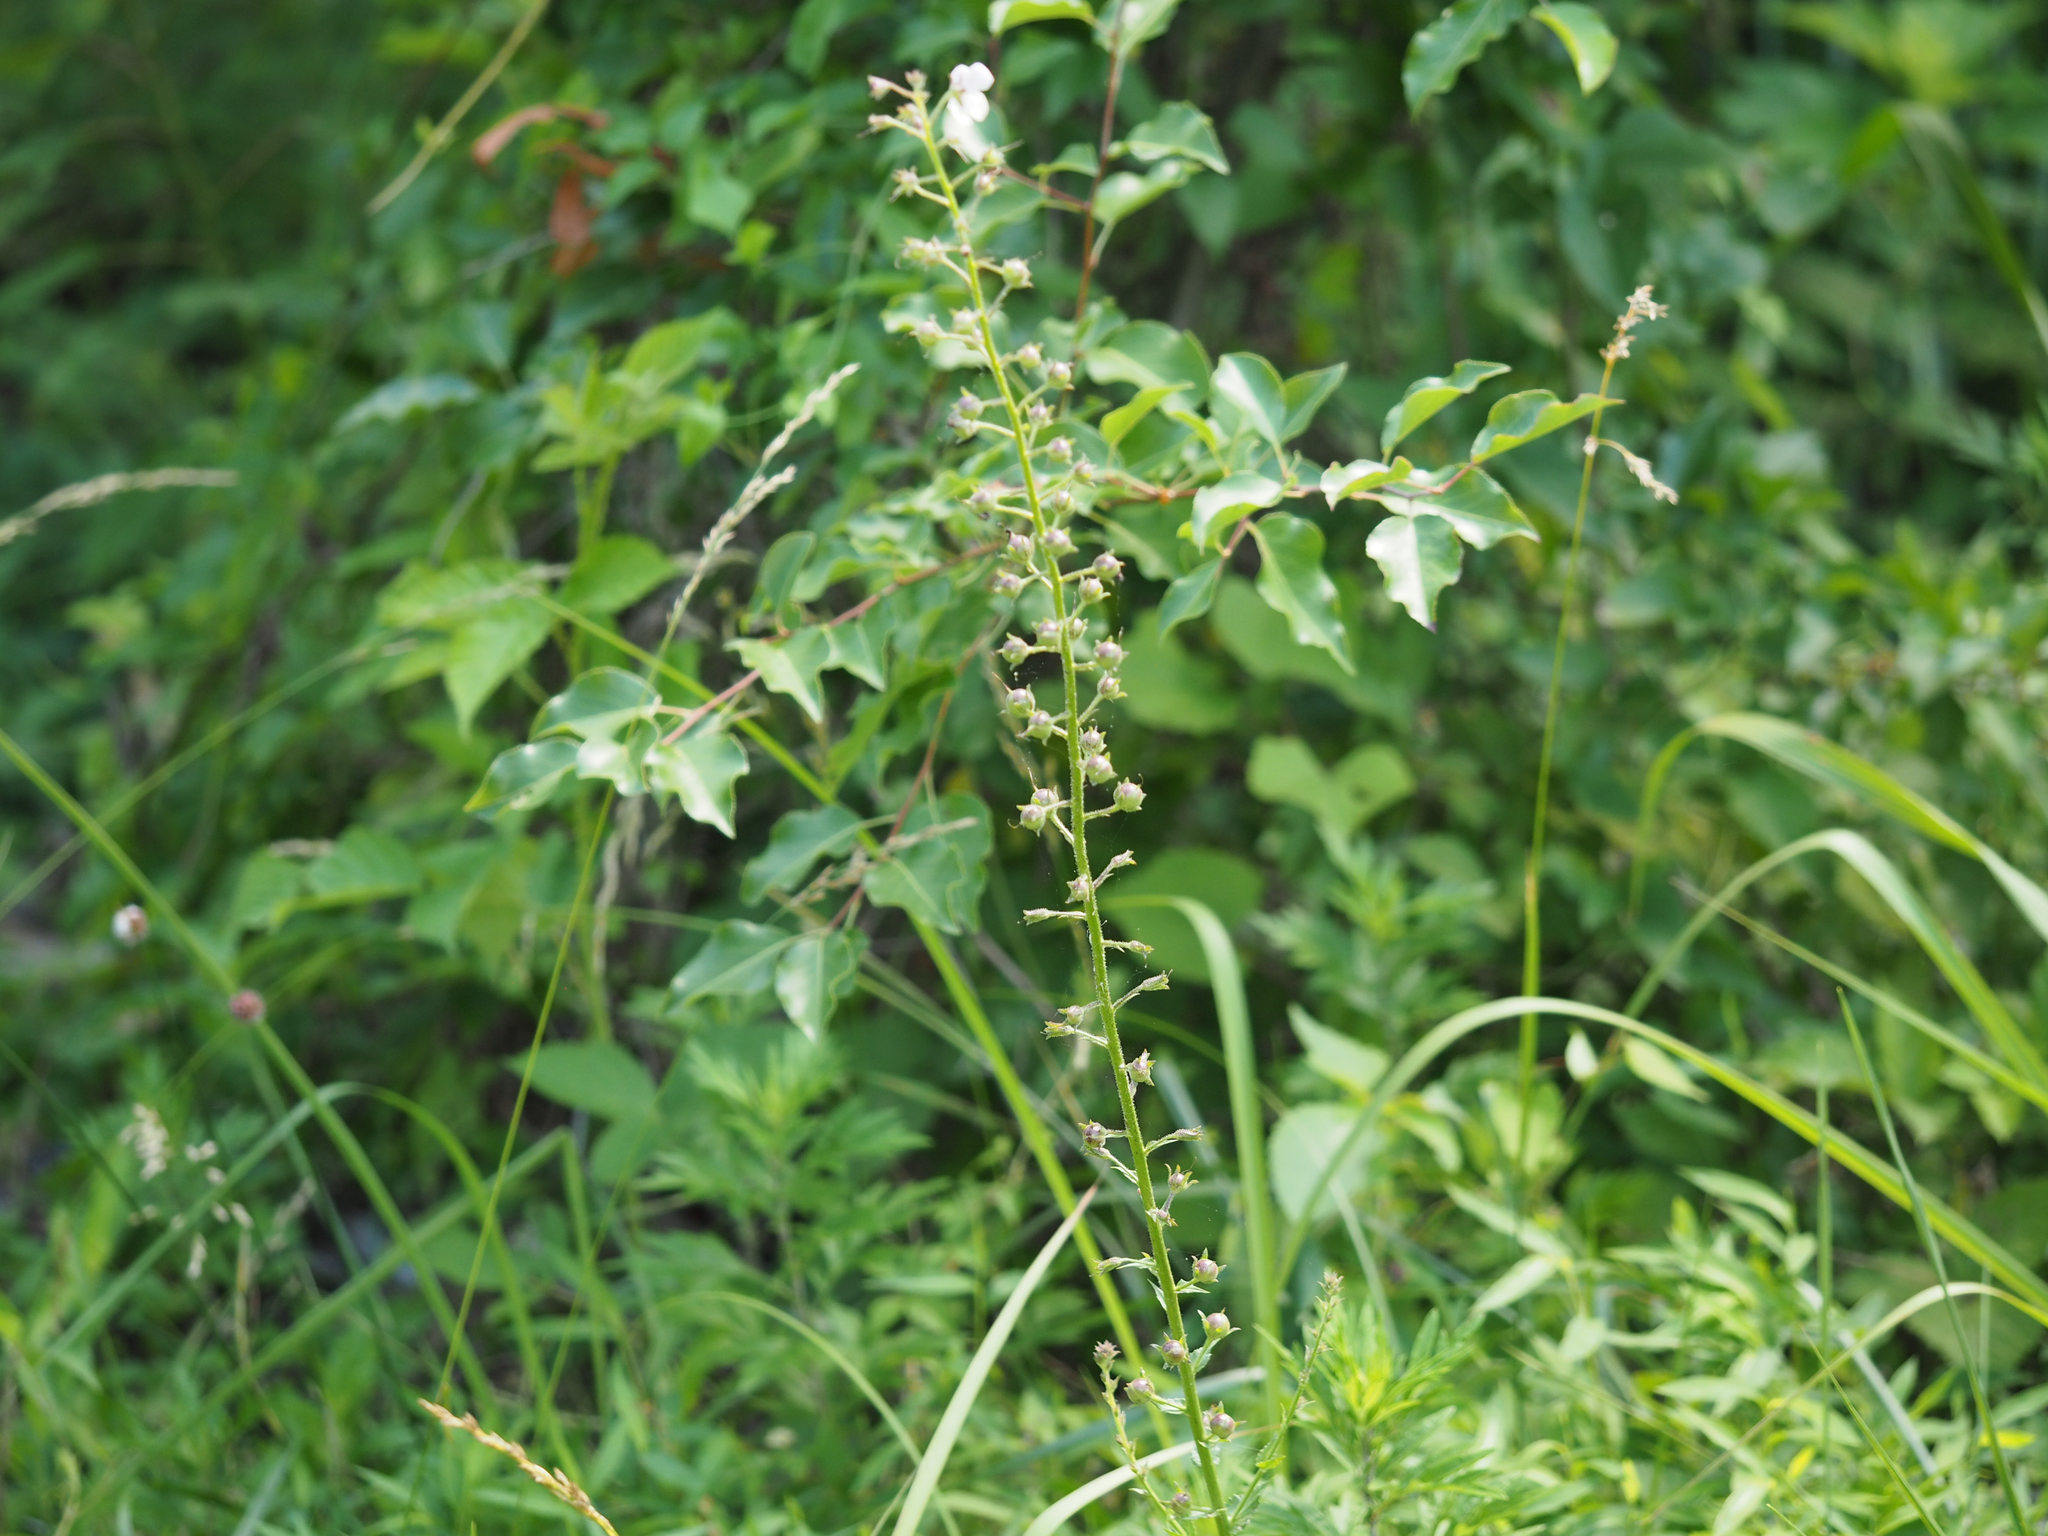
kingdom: Plantae
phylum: Tracheophyta
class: Magnoliopsida
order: Lamiales
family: Scrophulariaceae
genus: Verbascum
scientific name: Verbascum blattaria
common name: Moth mullein
